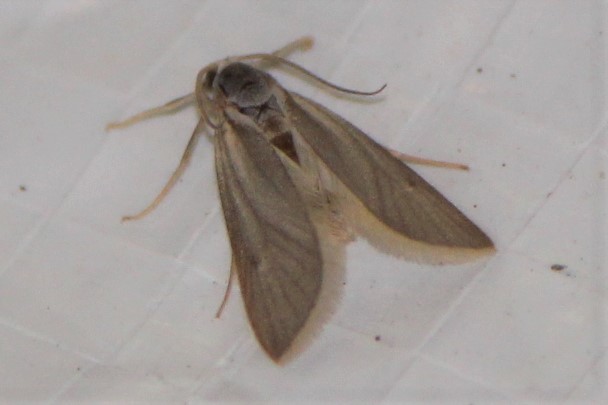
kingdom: Animalia
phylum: Arthropoda
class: Insecta
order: Lepidoptera
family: Crambidae
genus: Acentria
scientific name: Acentria ephemerella
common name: European water moth
